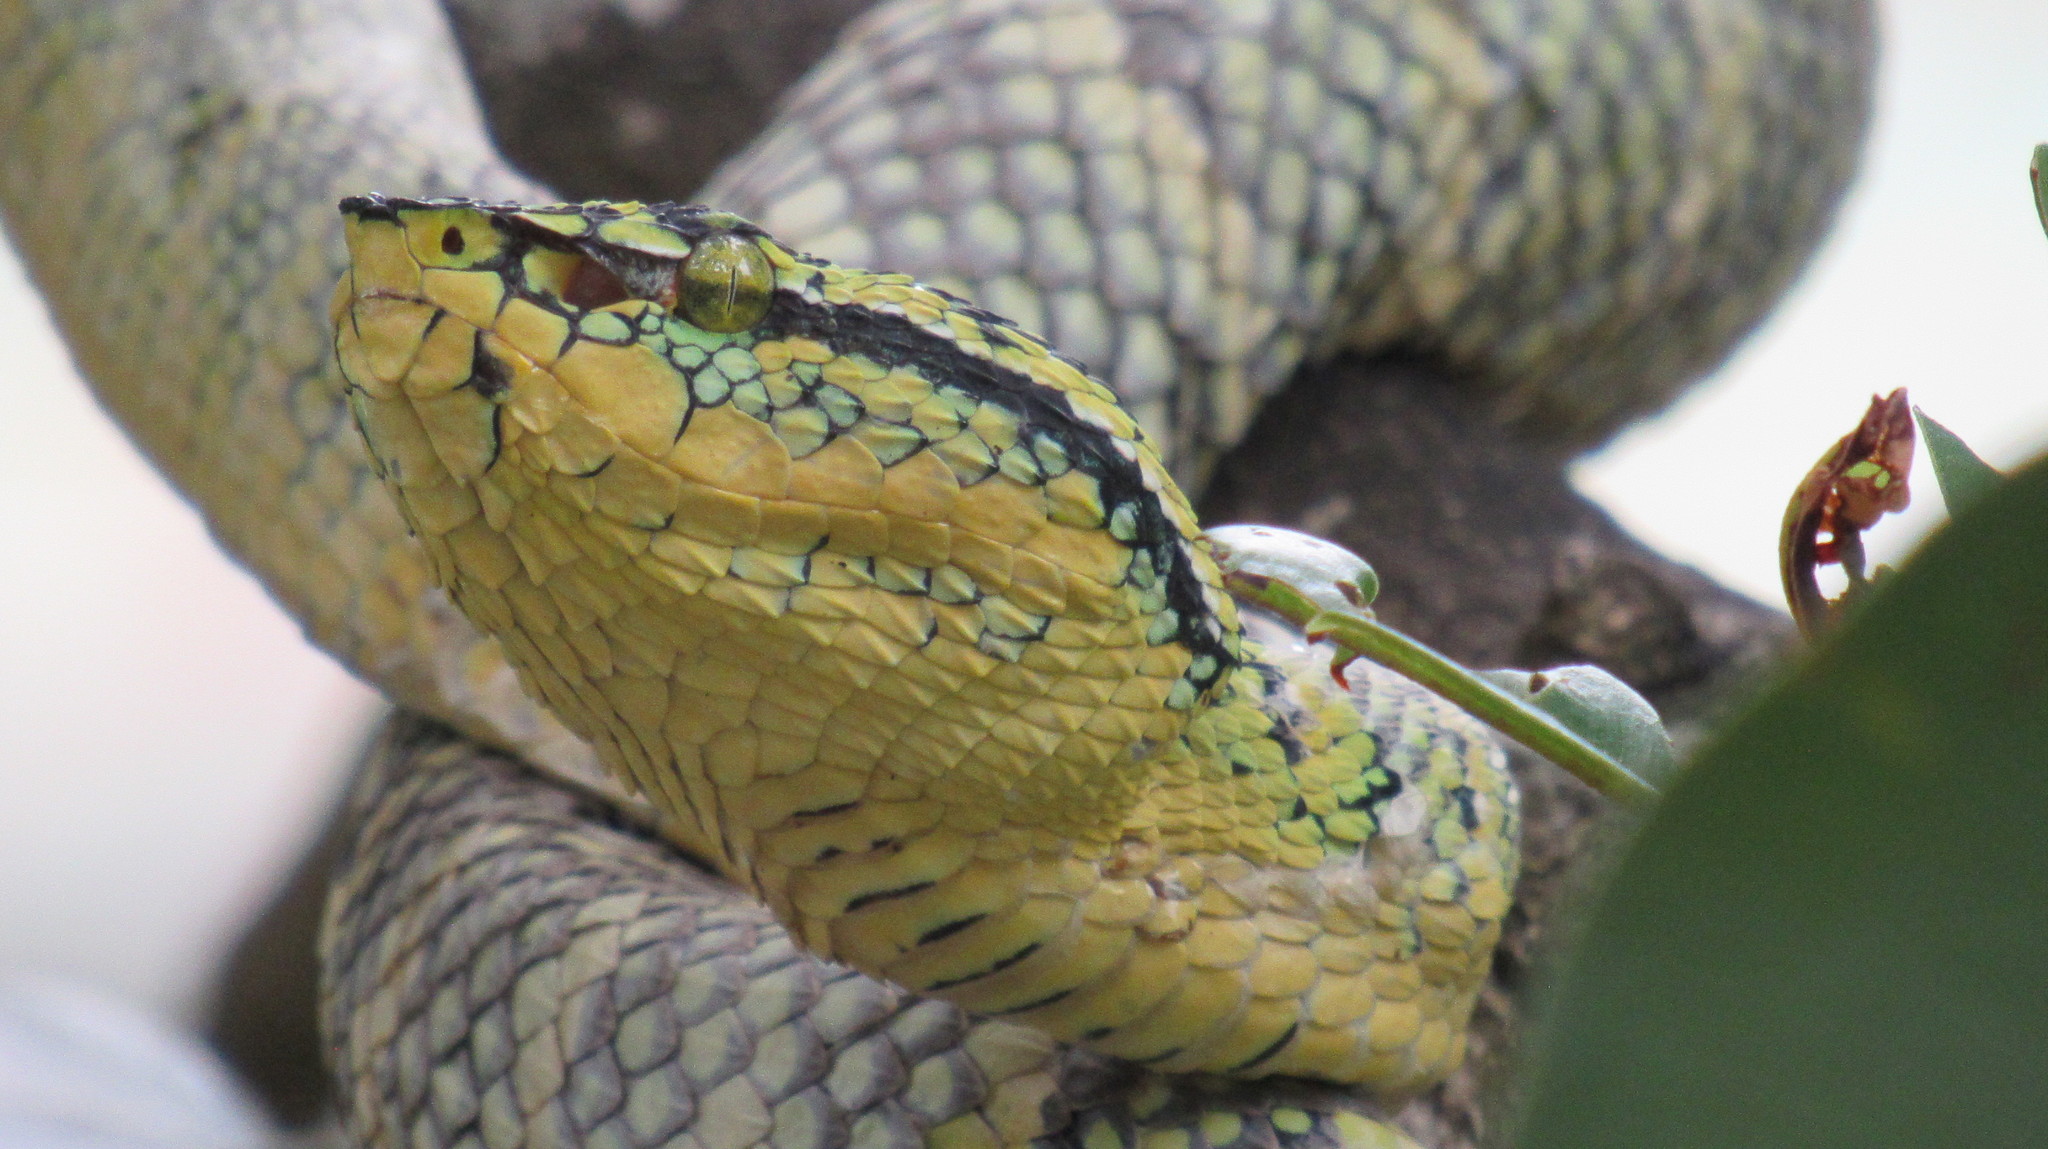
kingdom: Animalia
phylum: Chordata
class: Squamata
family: Viperidae
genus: Tropidolaemus
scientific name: Tropidolaemus wagleri
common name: Wagler's palm viper
